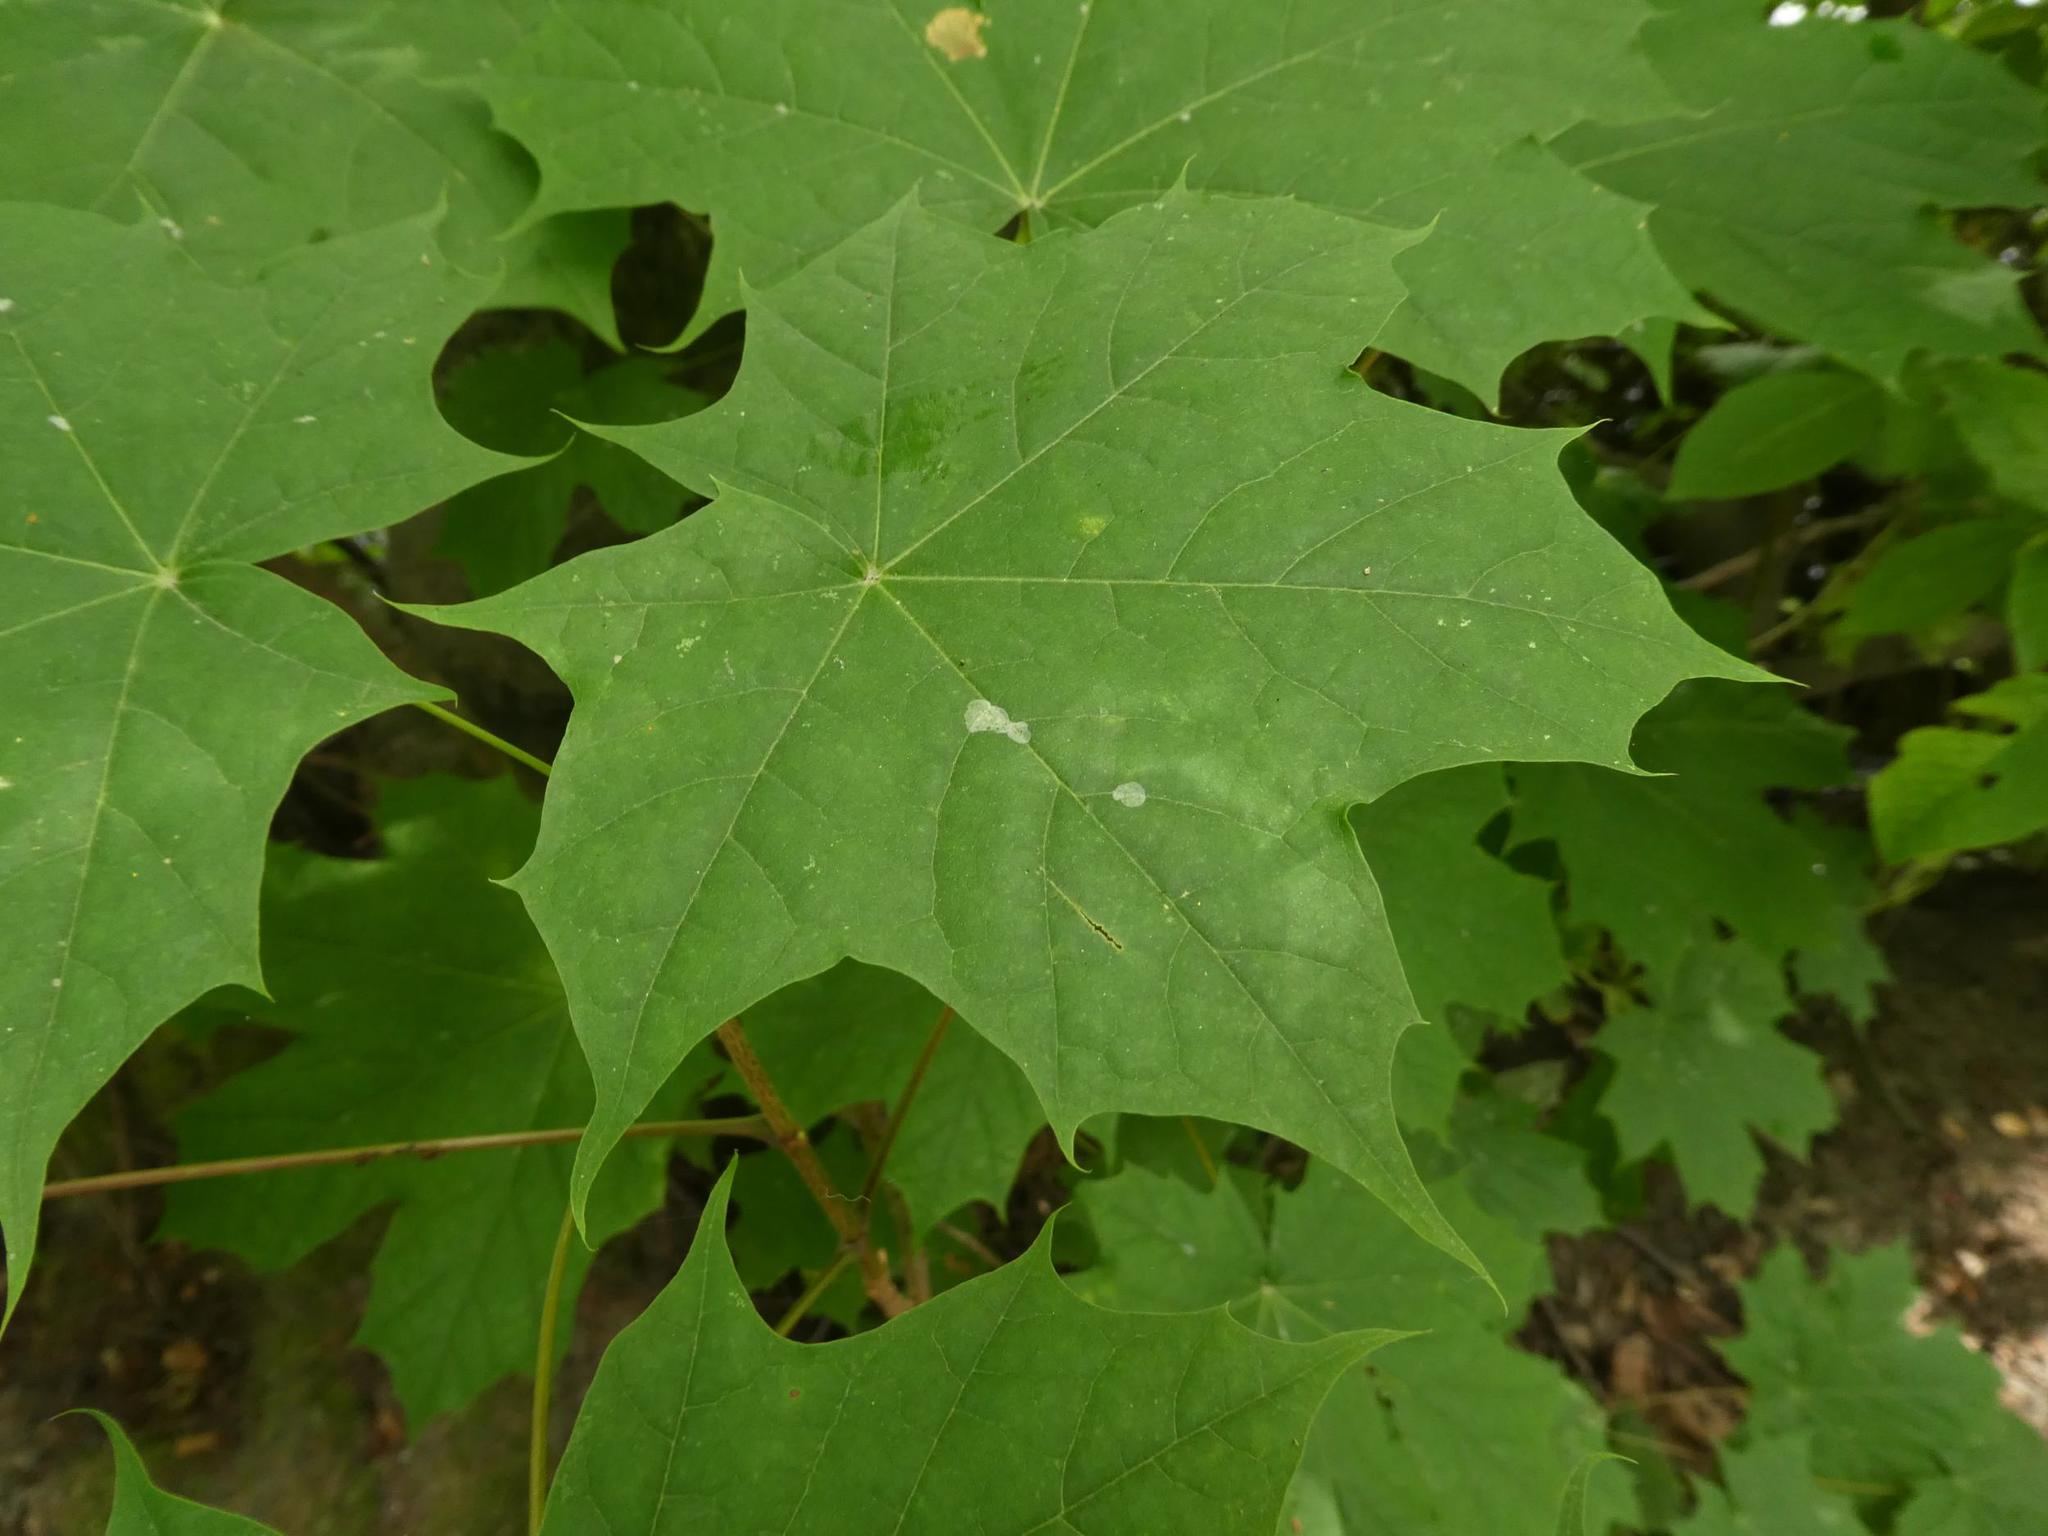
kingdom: Plantae
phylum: Tracheophyta
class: Magnoliopsida
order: Sapindales
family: Sapindaceae
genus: Acer
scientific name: Acer platanoides
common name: Norway maple
